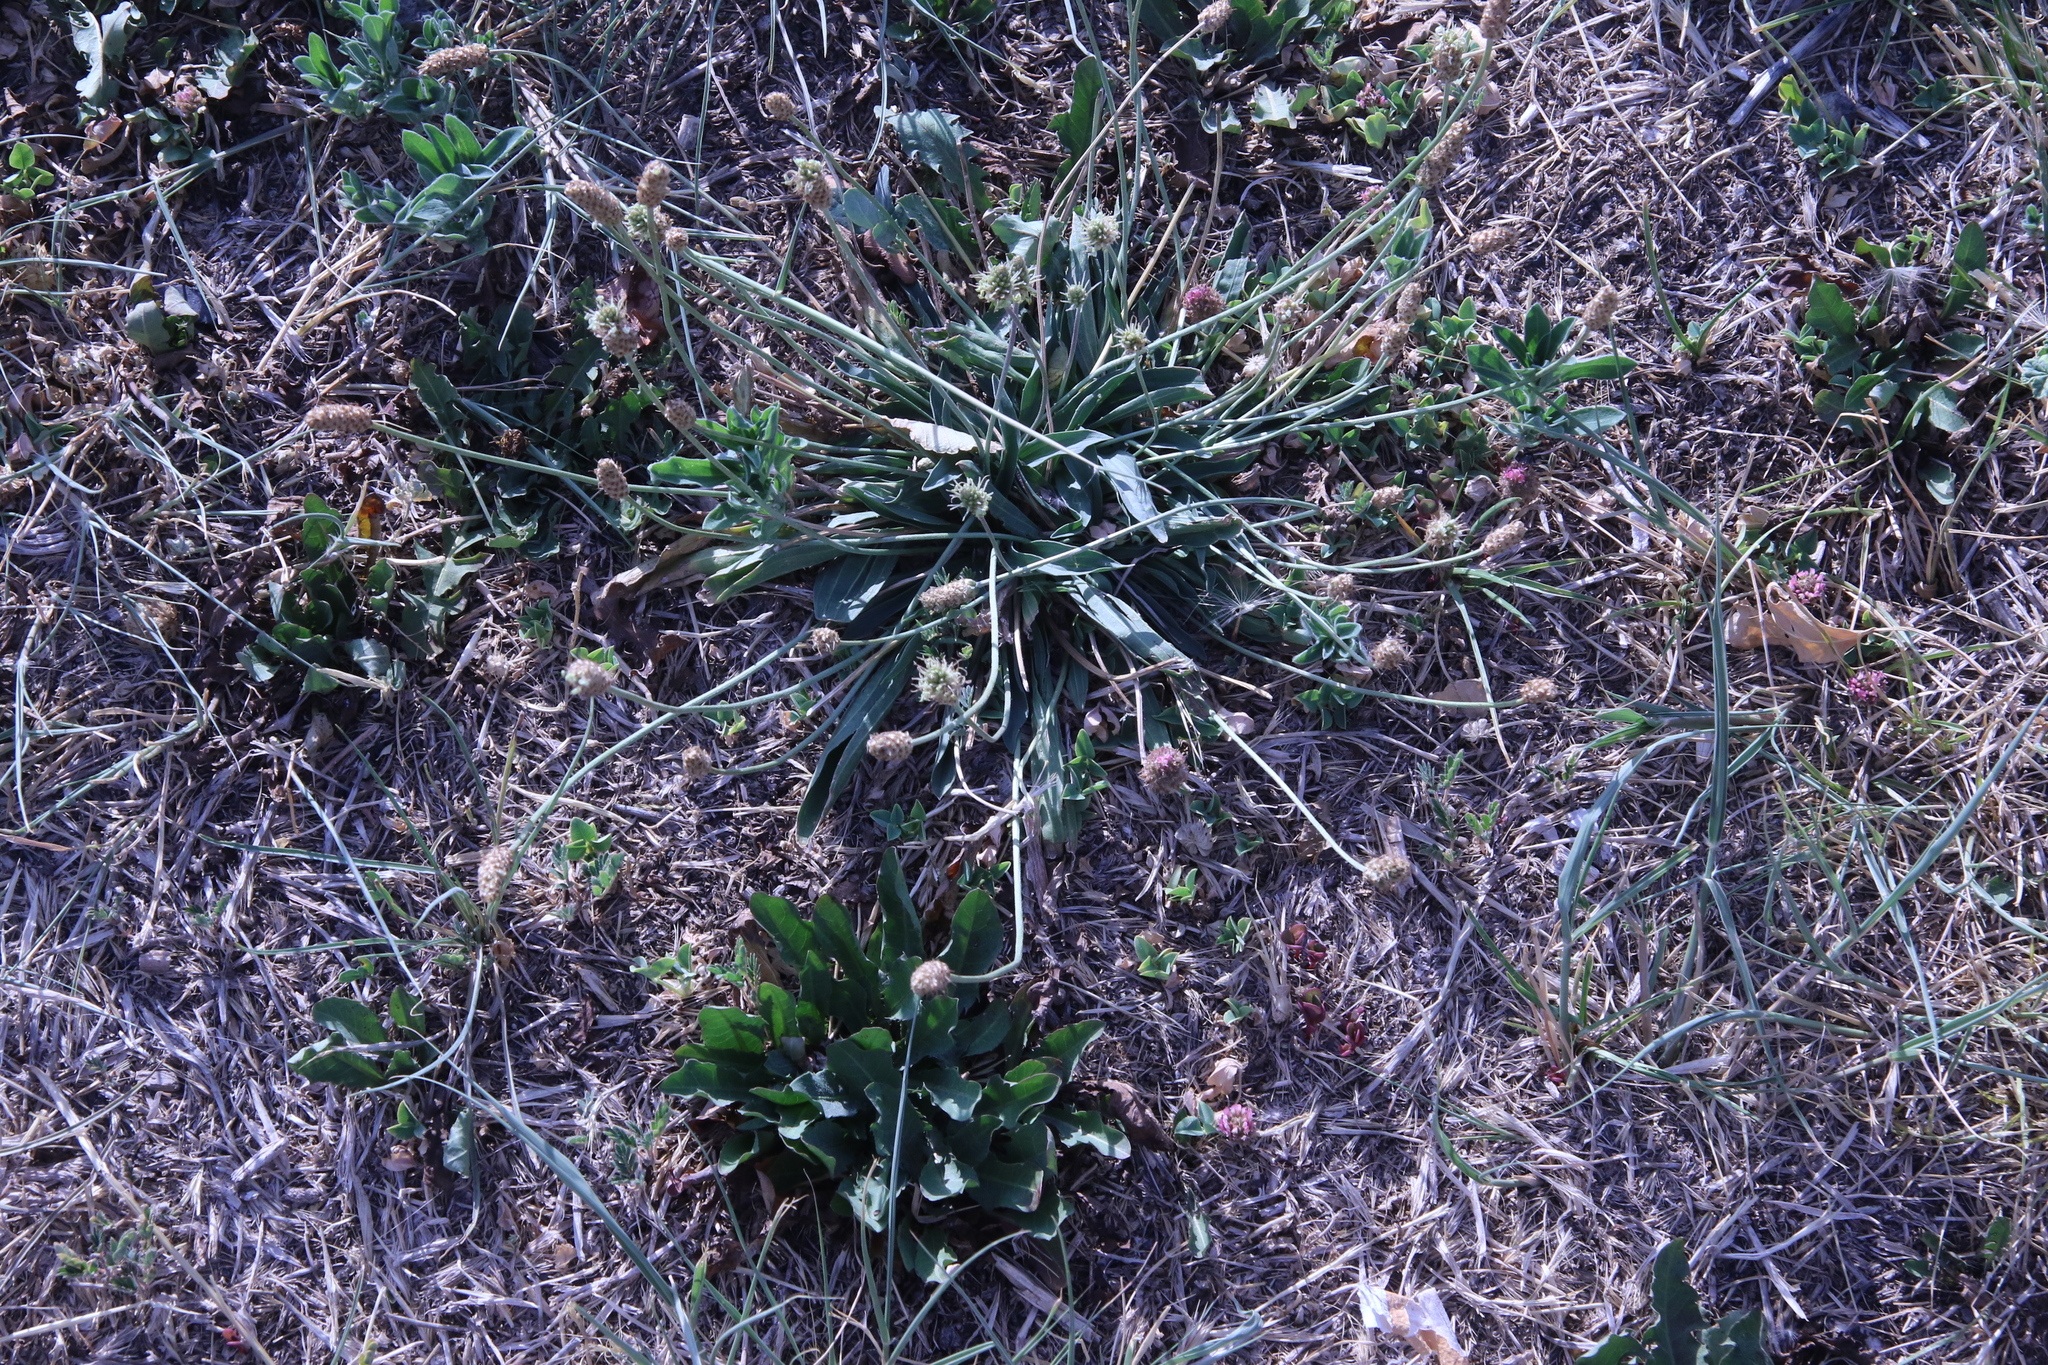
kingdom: Plantae
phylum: Tracheophyta
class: Magnoliopsida
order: Lamiales
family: Plantaginaceae
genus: Plantago
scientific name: Plantago lanceolata
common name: Ribwort plantain
